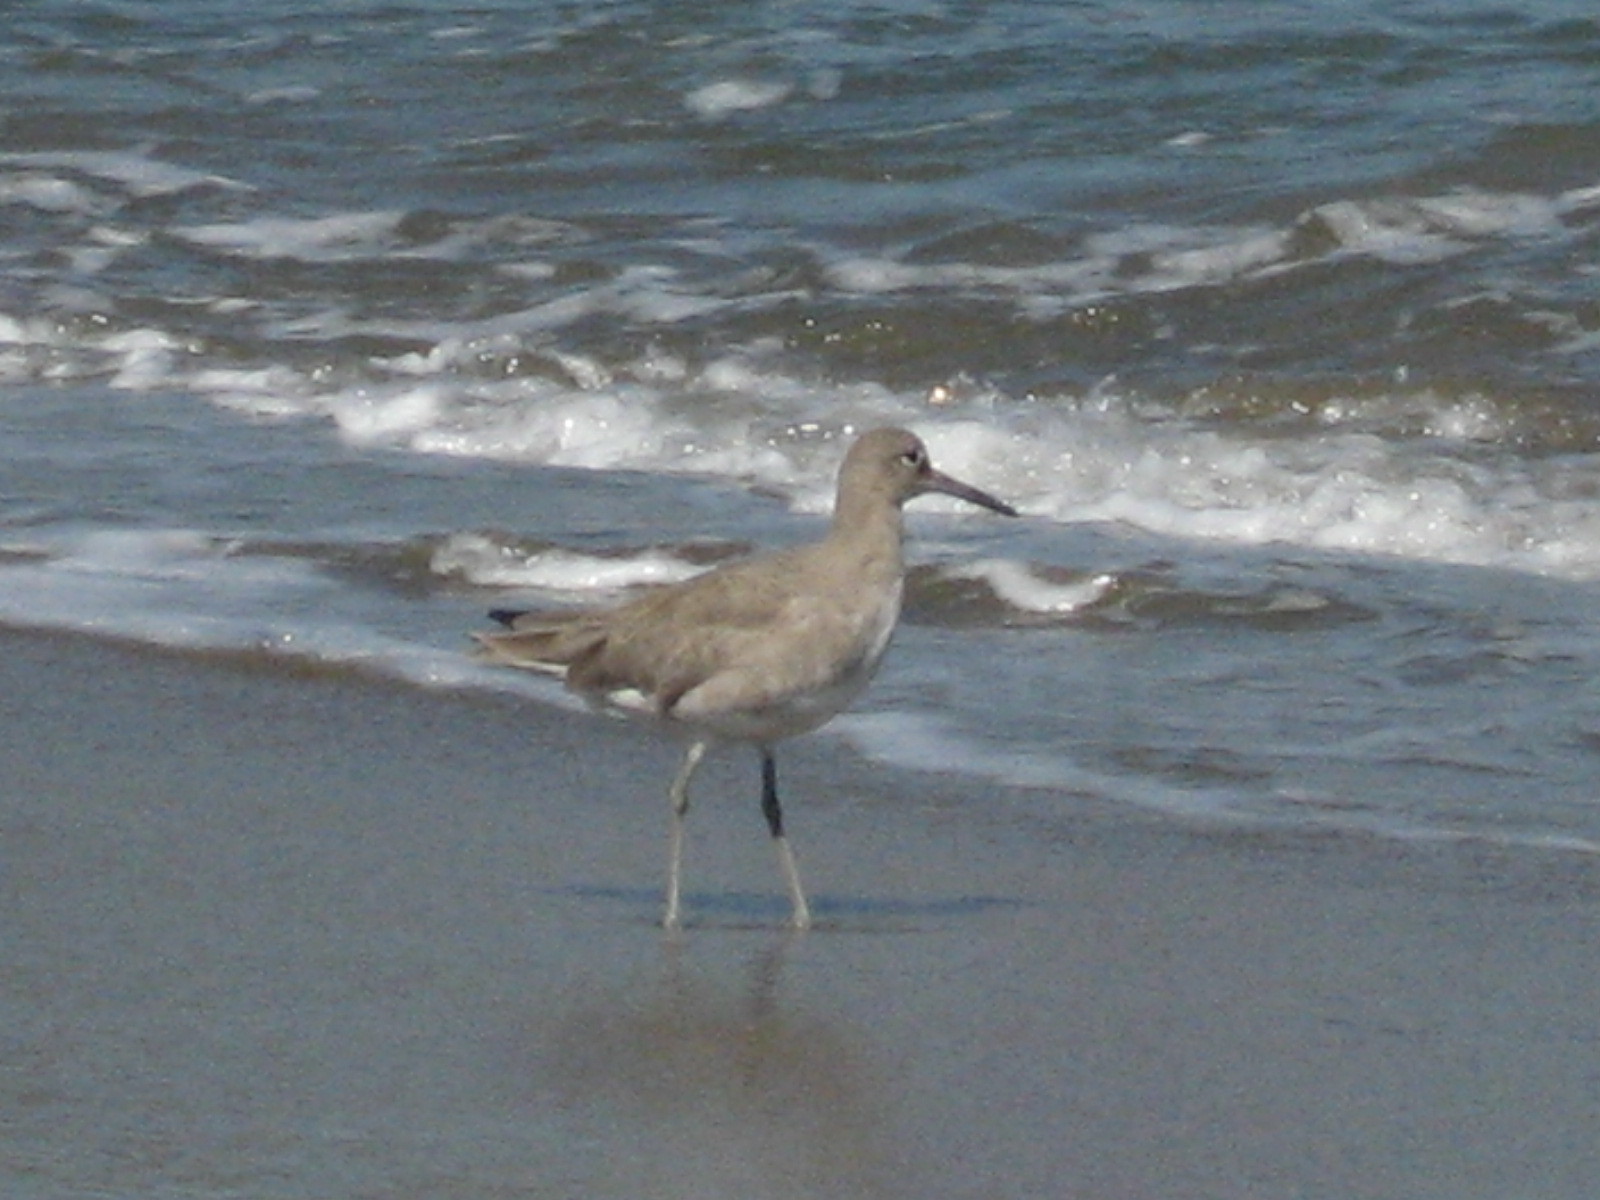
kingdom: Animalia
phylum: Chordata
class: Aves
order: Charadriiformes
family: Scolopacidae
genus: Tringa
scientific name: Tringa semipalmata
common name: Willet
